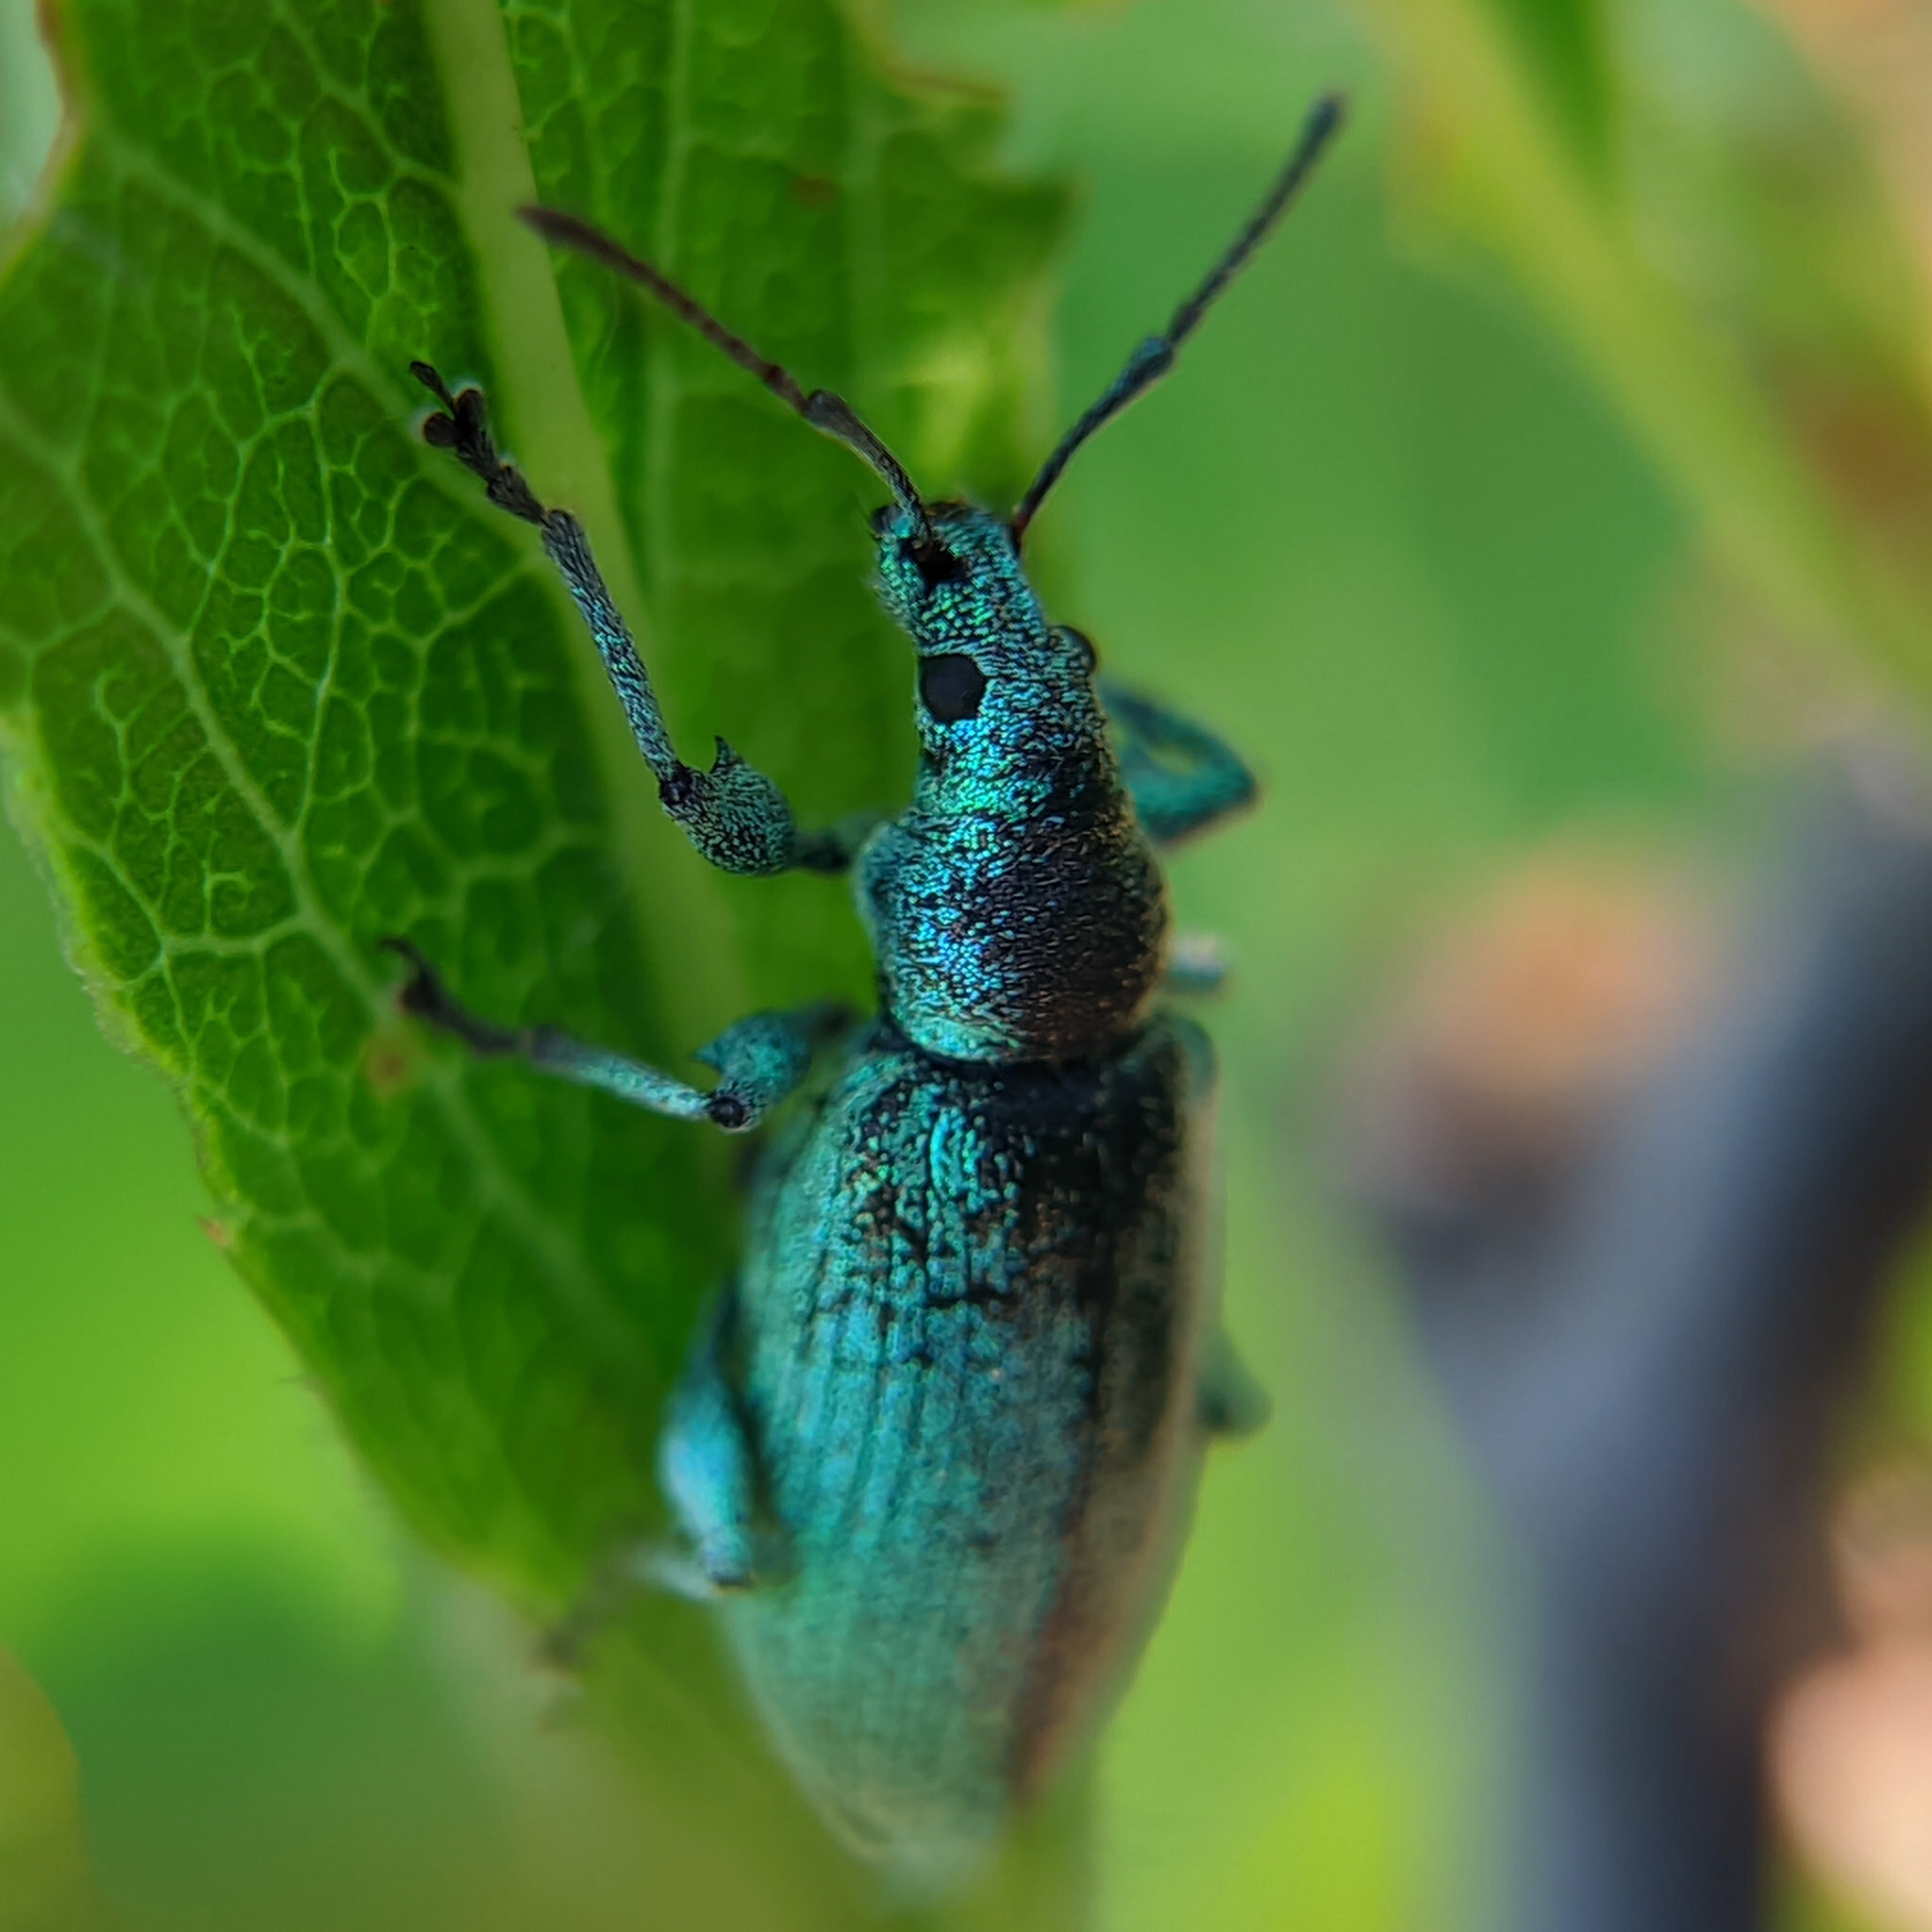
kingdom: Animalia
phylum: Arthropoda
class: Insecta
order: Coleoptera
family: Curculionidae
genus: Phyllobius
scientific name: Phyllobius maculicornis
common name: Green leaf weevil
